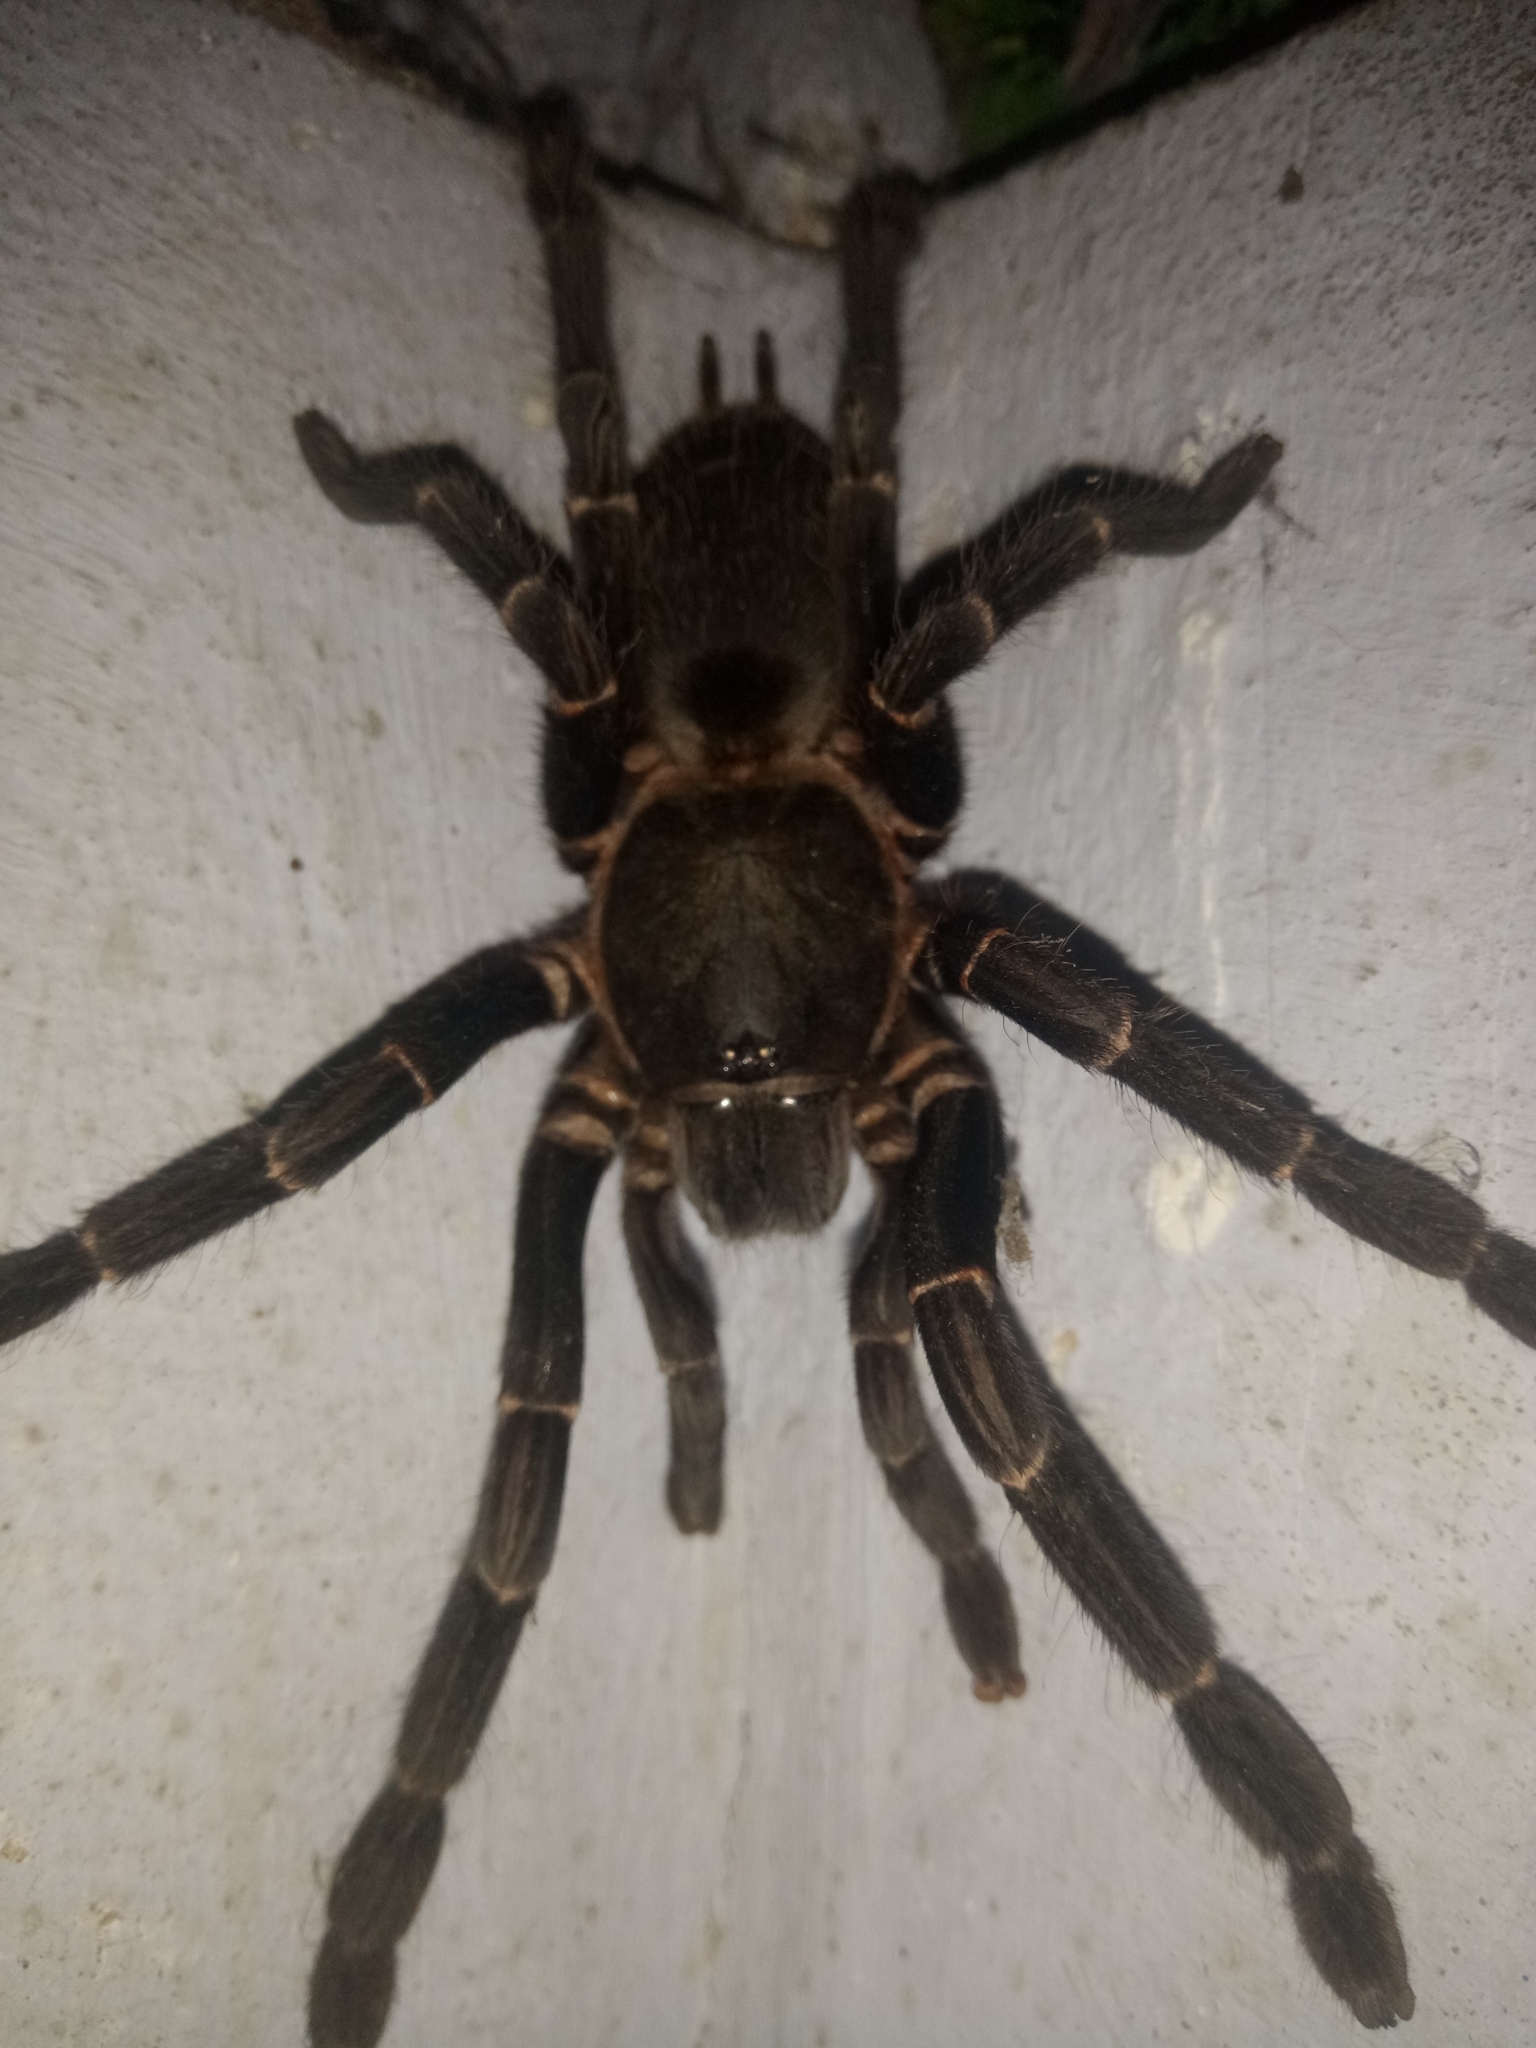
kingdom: Animalia
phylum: Arthropoda
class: Arachnida
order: Araneae
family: Theraphosidae
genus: Chilobrachys
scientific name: Chilobrachys stridulans
